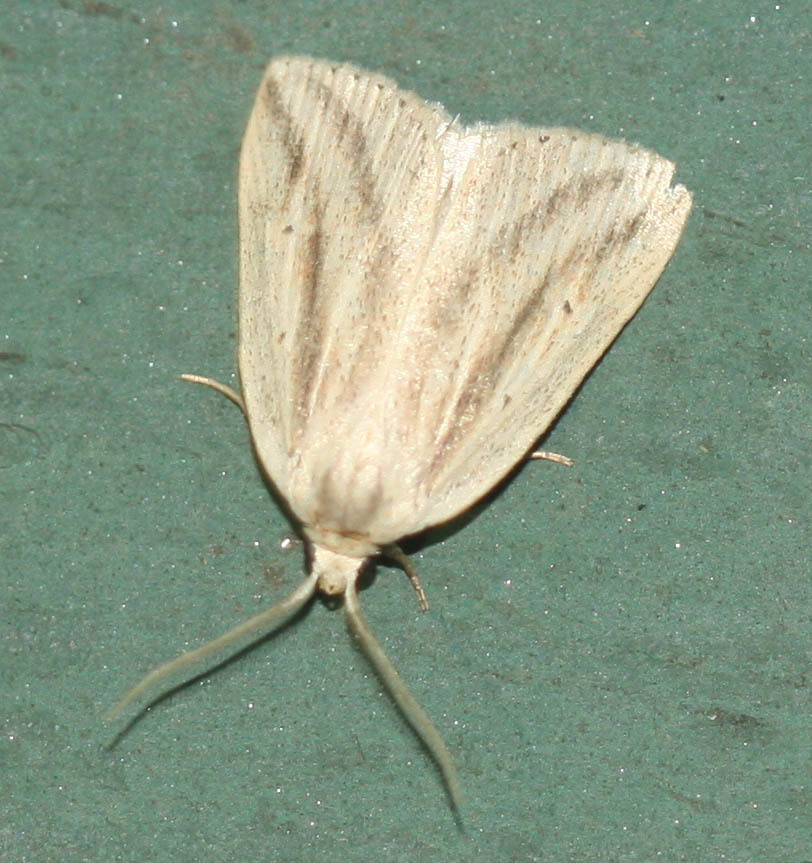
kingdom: Animalia
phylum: Arthropoda
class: Insecta
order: Lepidoptera
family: Noctuidae
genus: Amolita
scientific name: Amolita fessa
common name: Feeble grass moth
